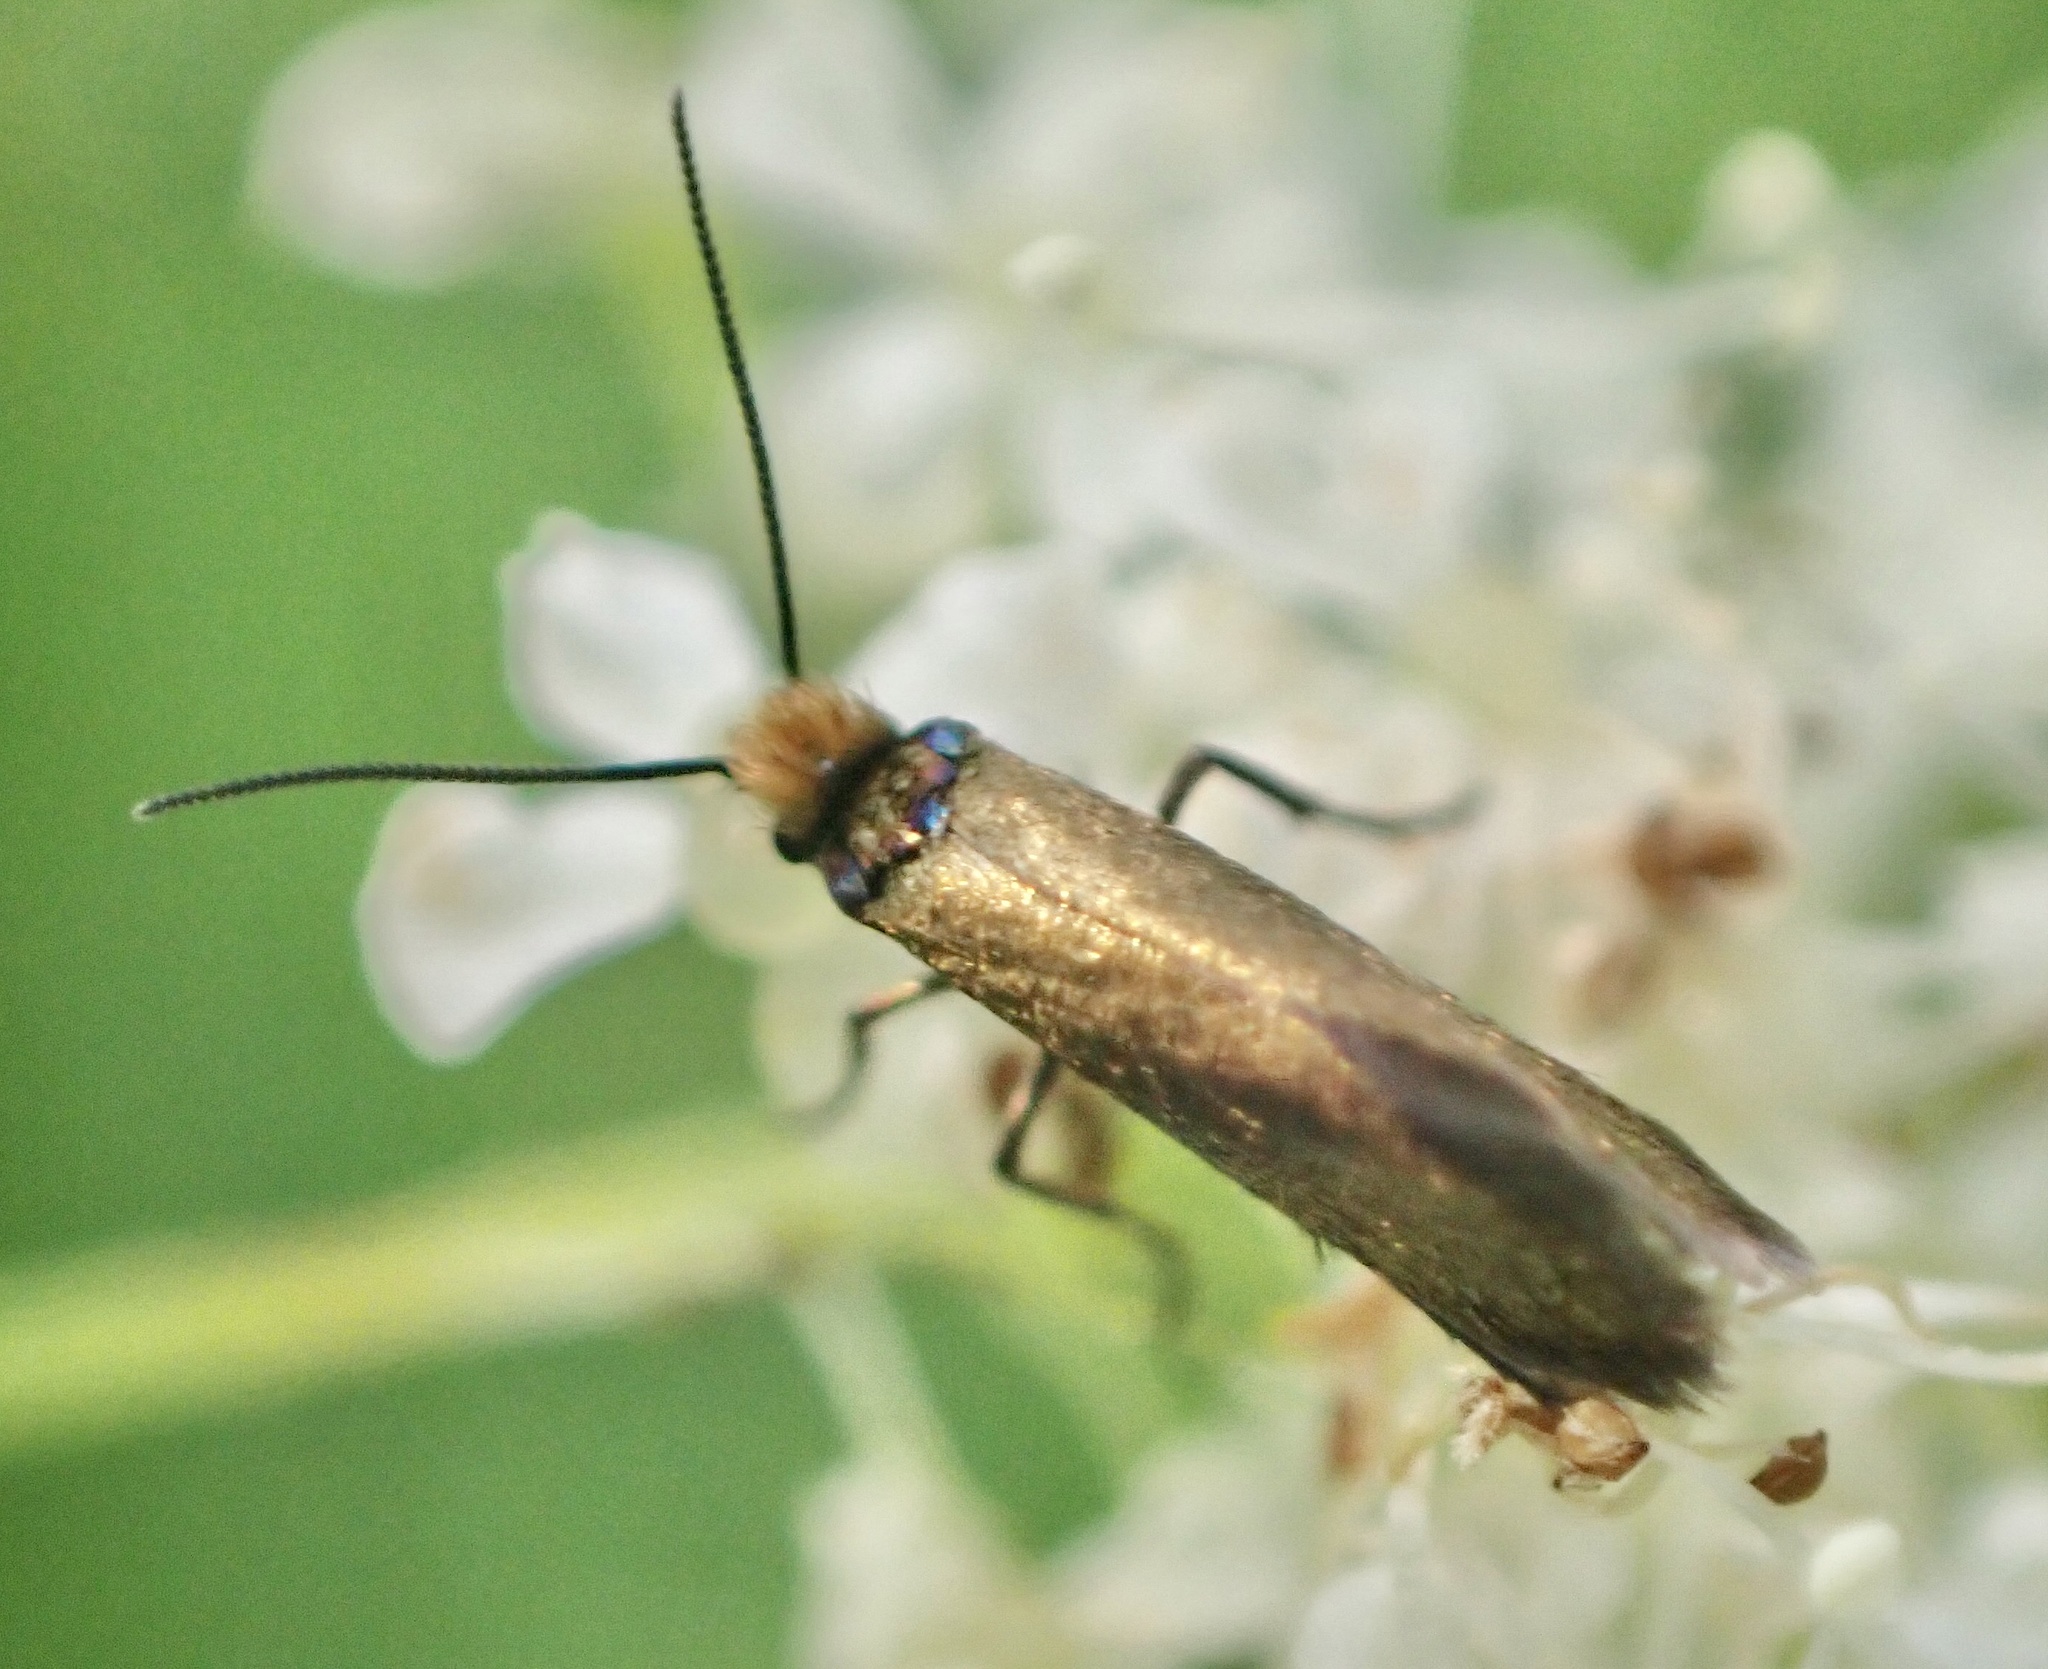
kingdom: Animalia
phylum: Arthropoda
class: Insecta
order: Lepidoptera
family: Micropterigidae
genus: Micropterix
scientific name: Micropterix aruncella
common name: White-barred gold
